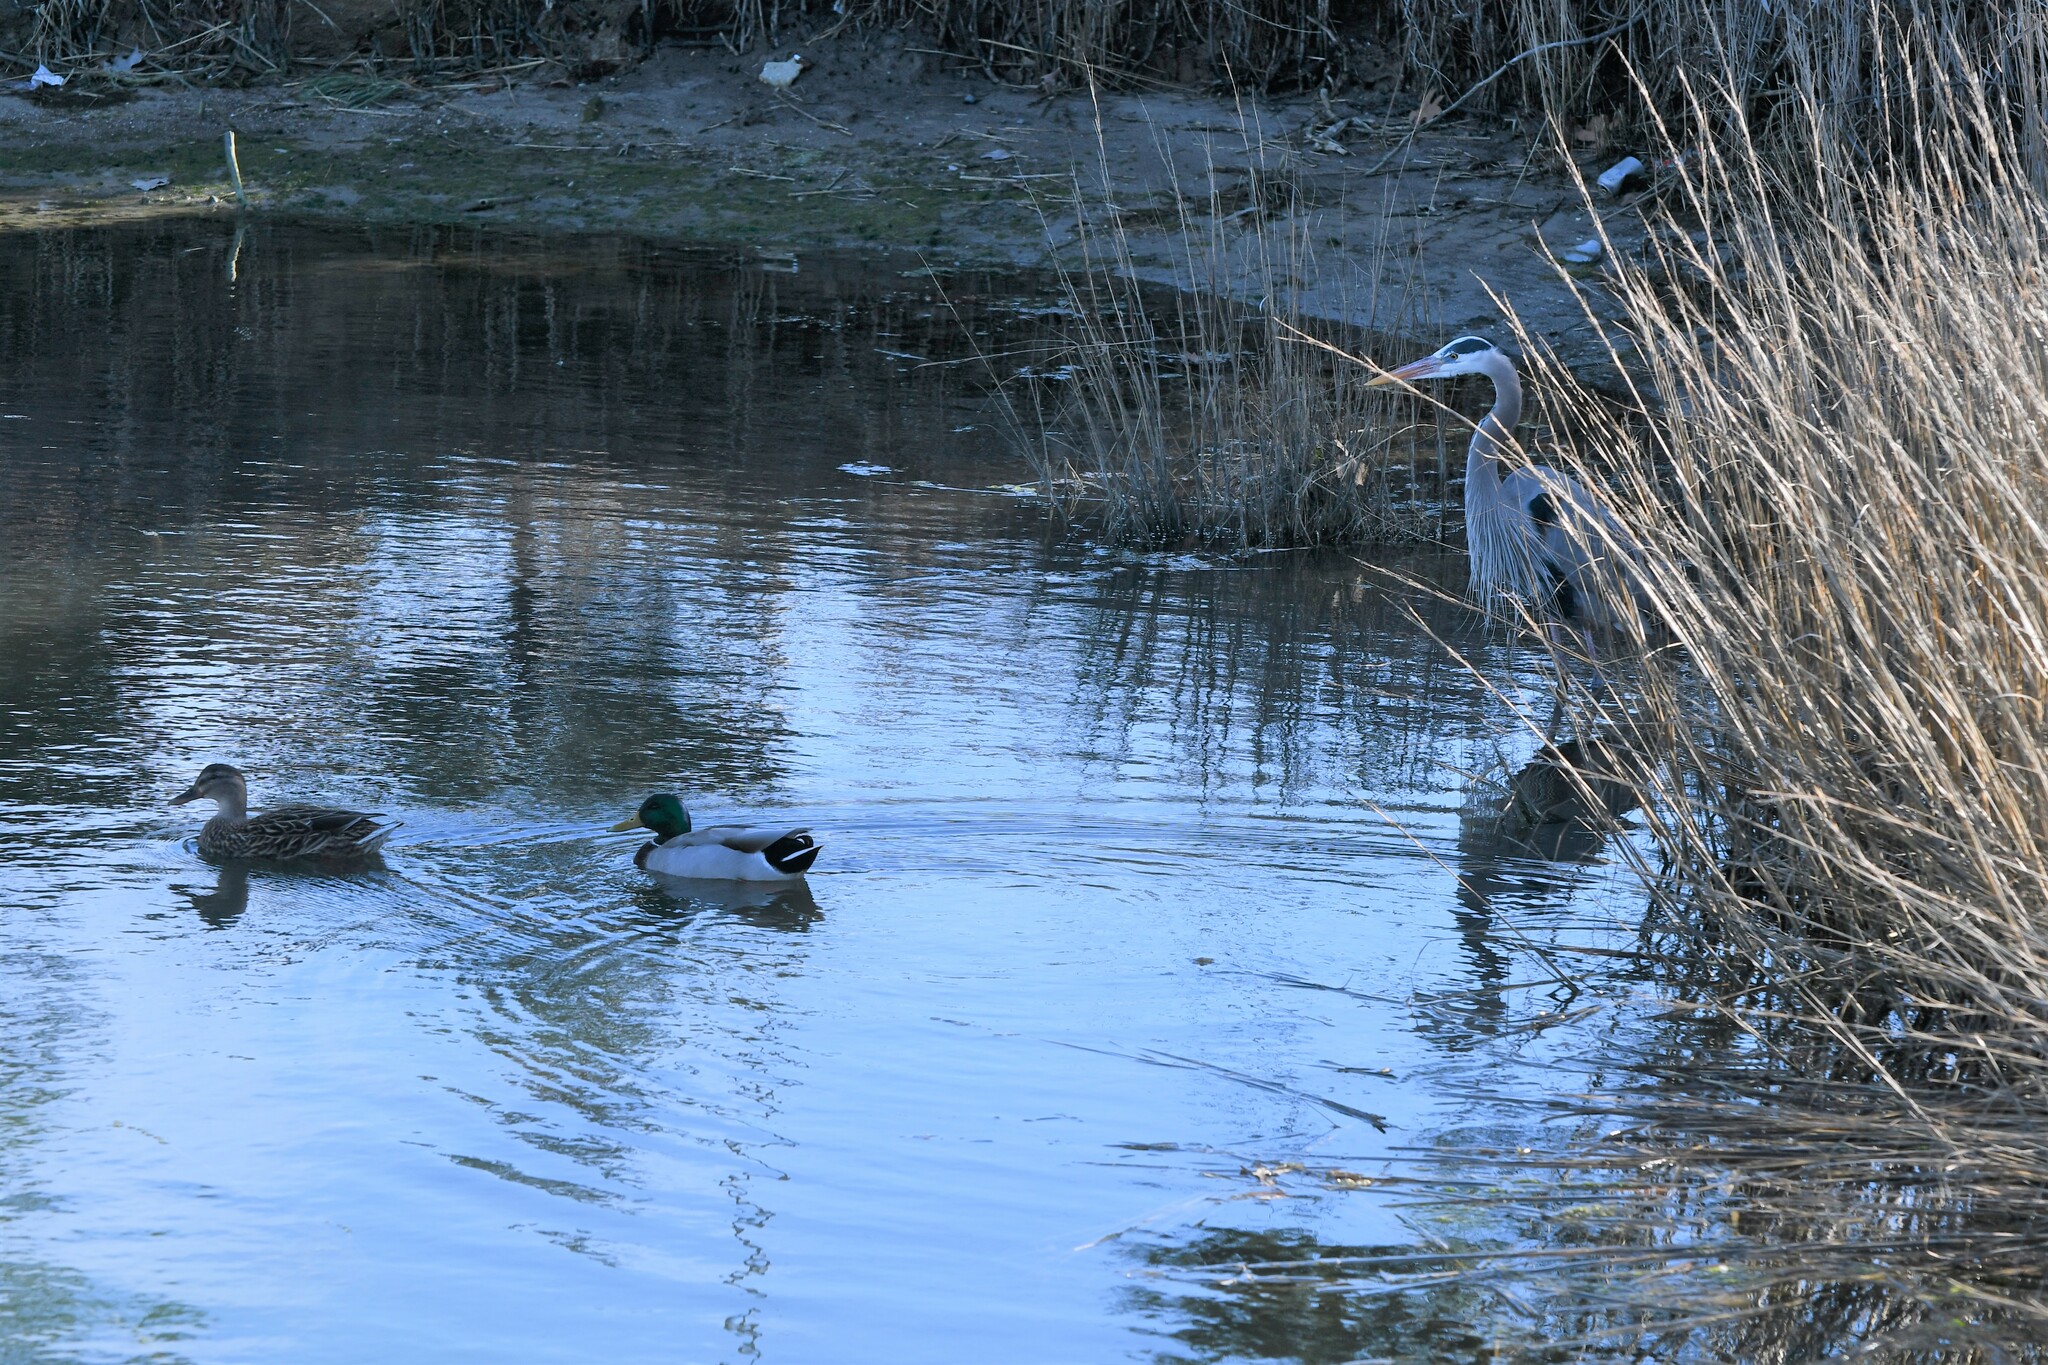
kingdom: Animalia
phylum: Chordata
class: Aves
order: Anseriformes
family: Anatidae
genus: Anas
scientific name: Anas platyrhynchos
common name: Mallard
